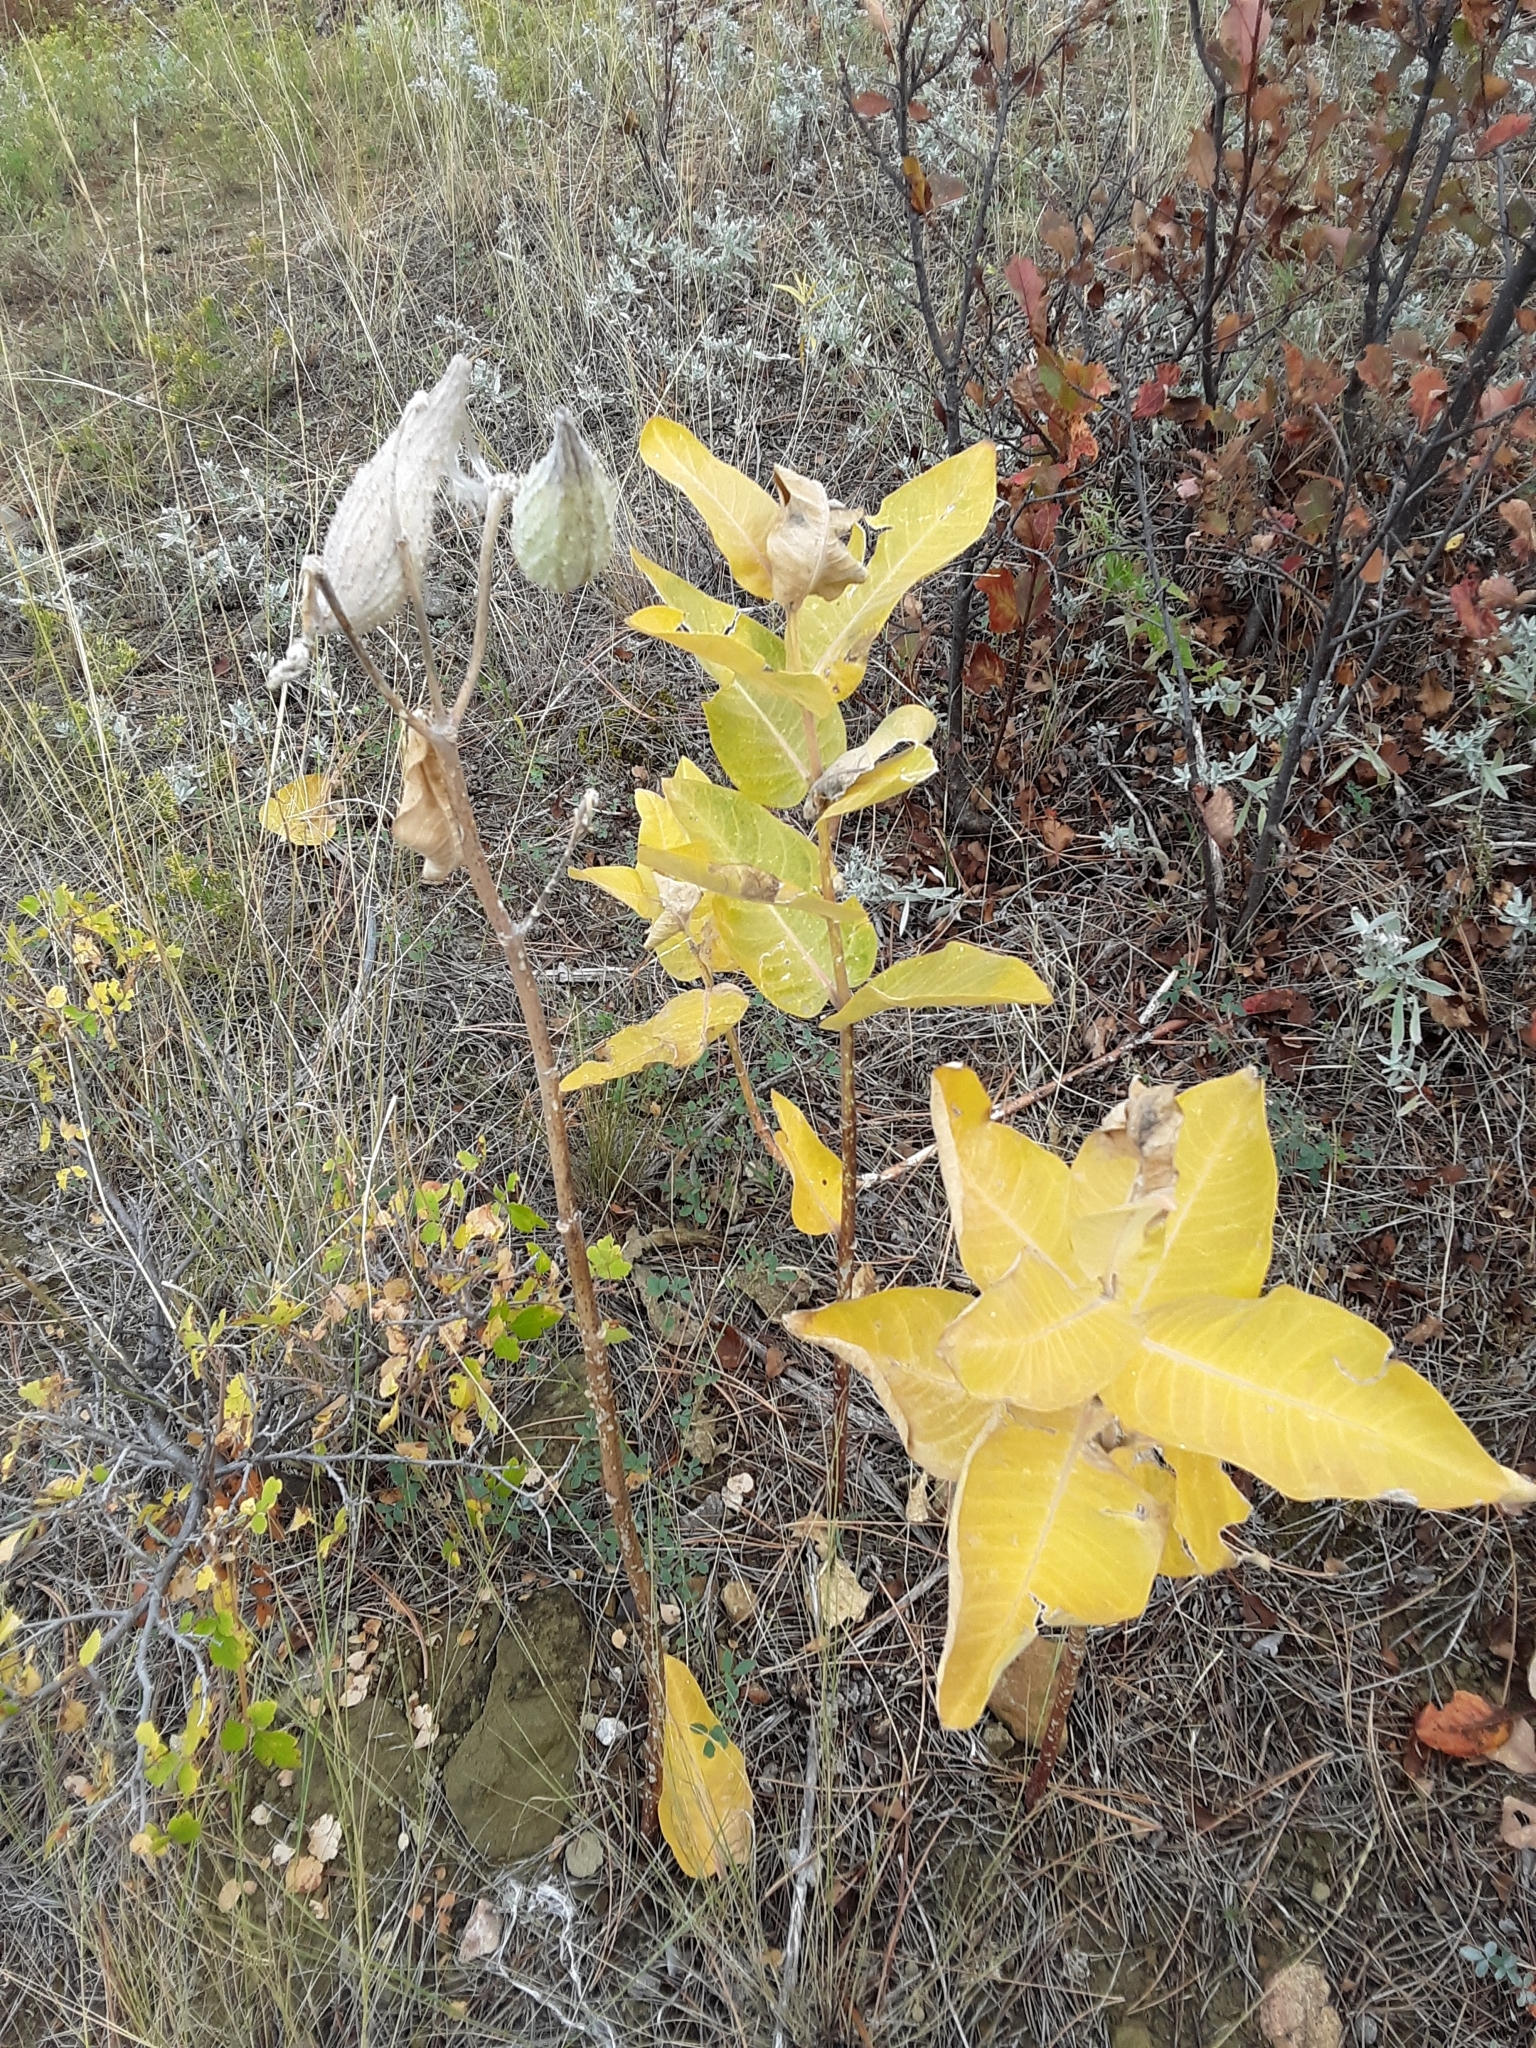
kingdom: Plantae
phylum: Tracheophyta
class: Magnoliopsida
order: Gentianales
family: Apocynaceae
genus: Asclepias
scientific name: Asclepias speciosa
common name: Showy milkweed
